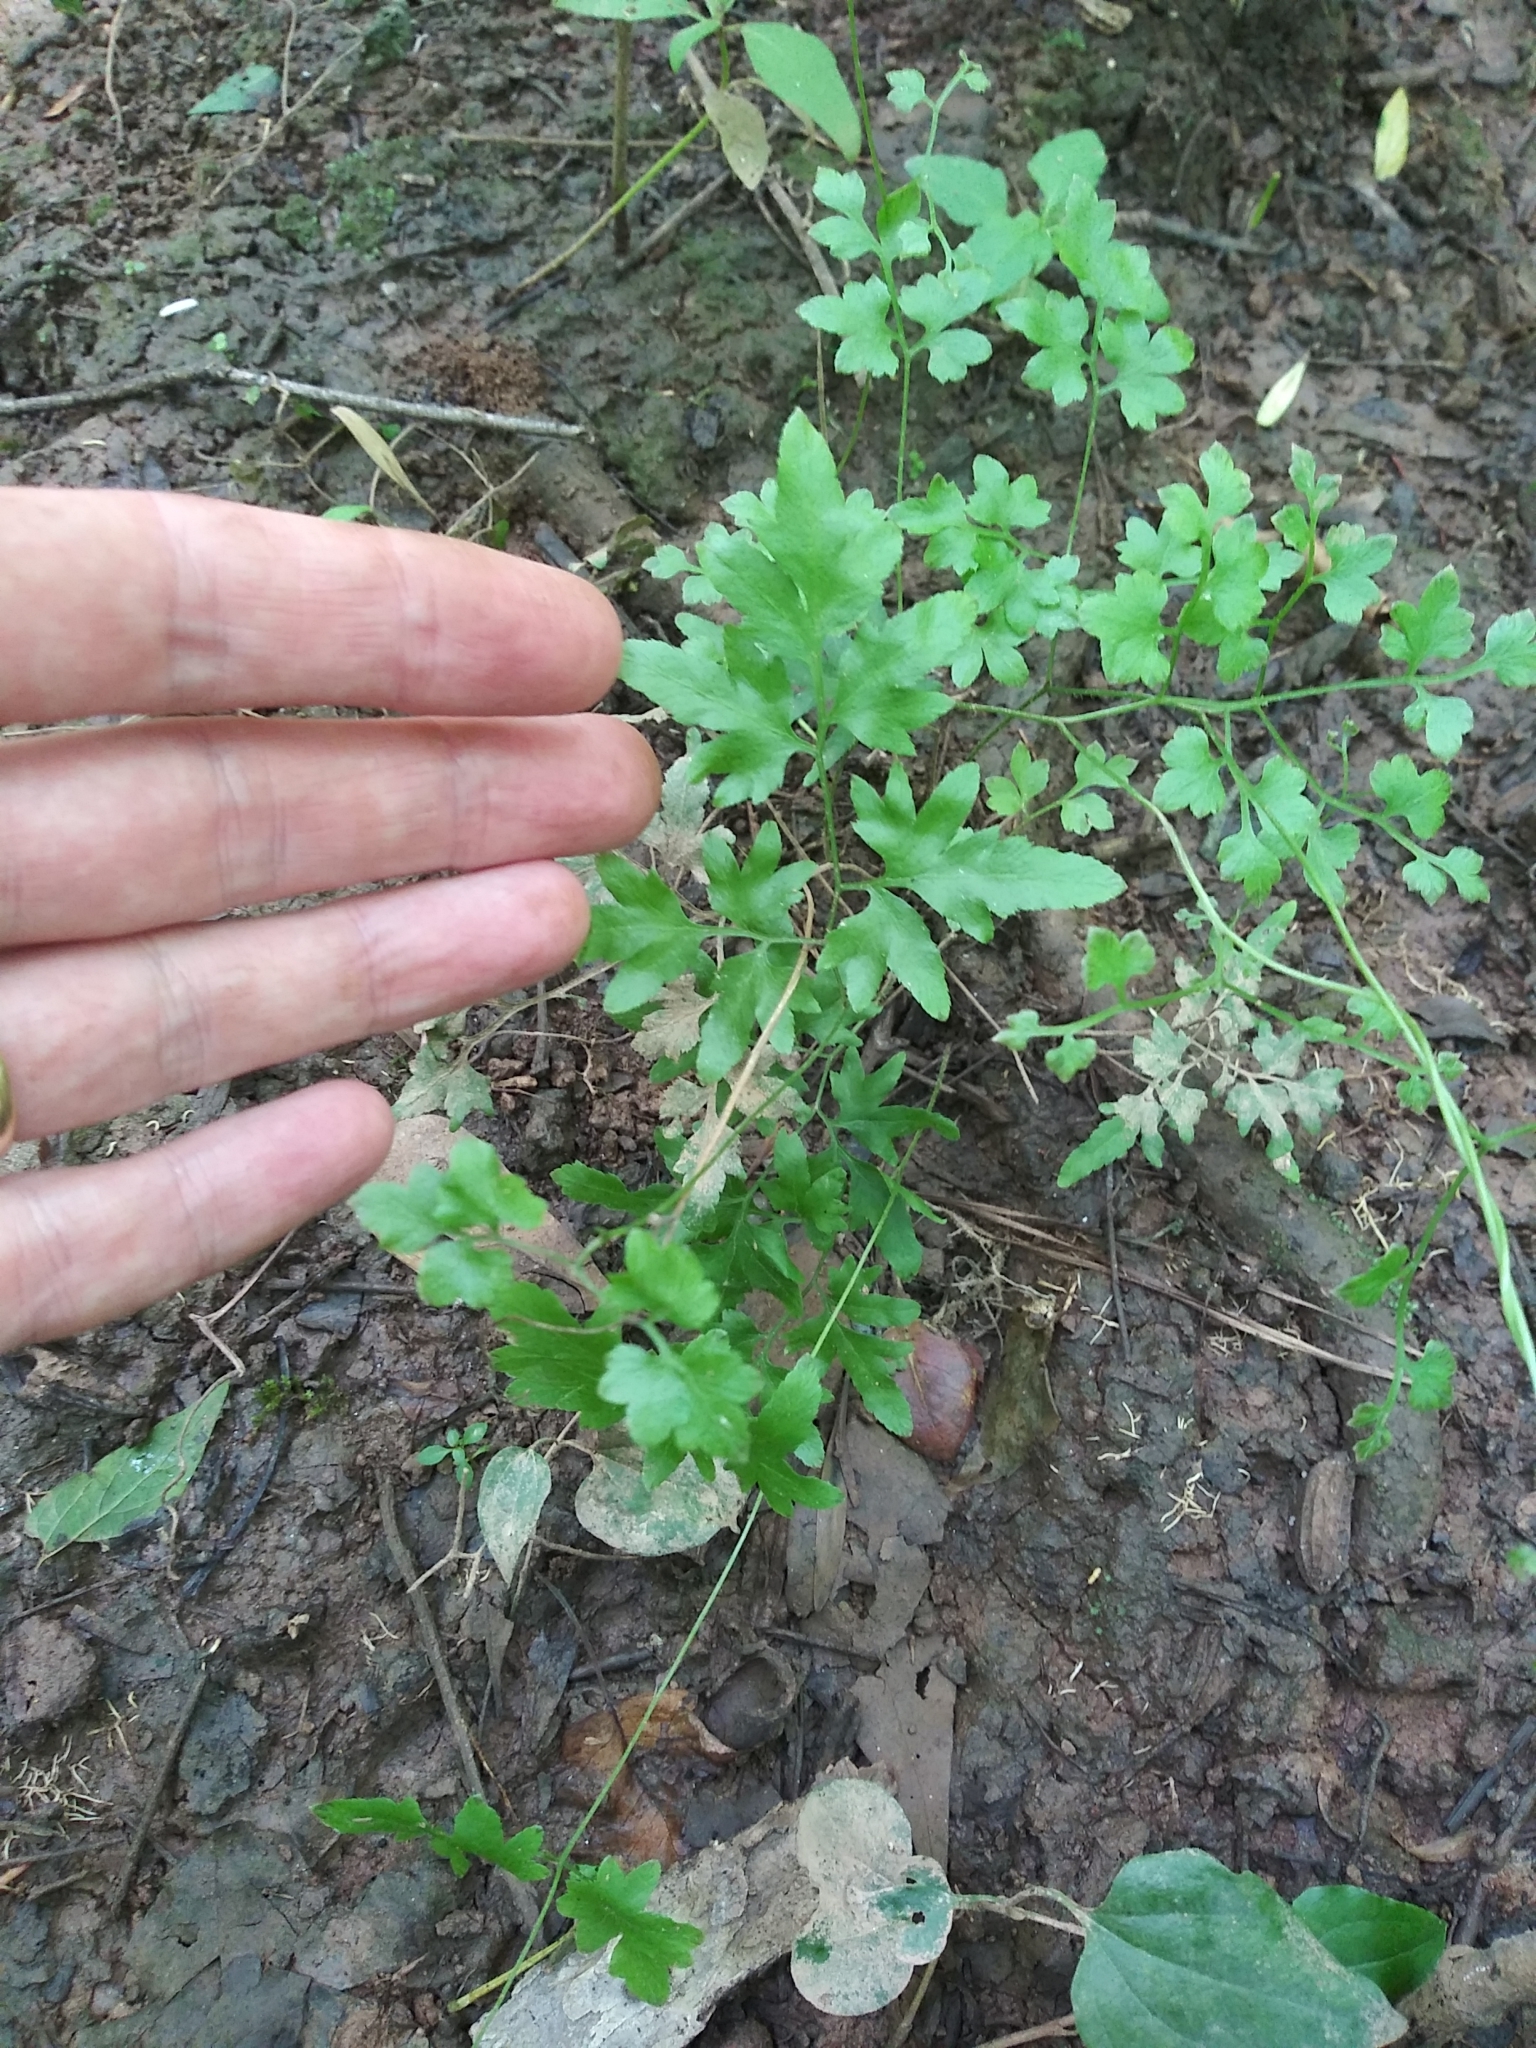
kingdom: Plantae
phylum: Tracheophyta
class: Polypodiopsida
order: Schizaeales
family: Lygodiaceae
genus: Lygodium
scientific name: Lygodium japonicum
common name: Japanese climbing fern
